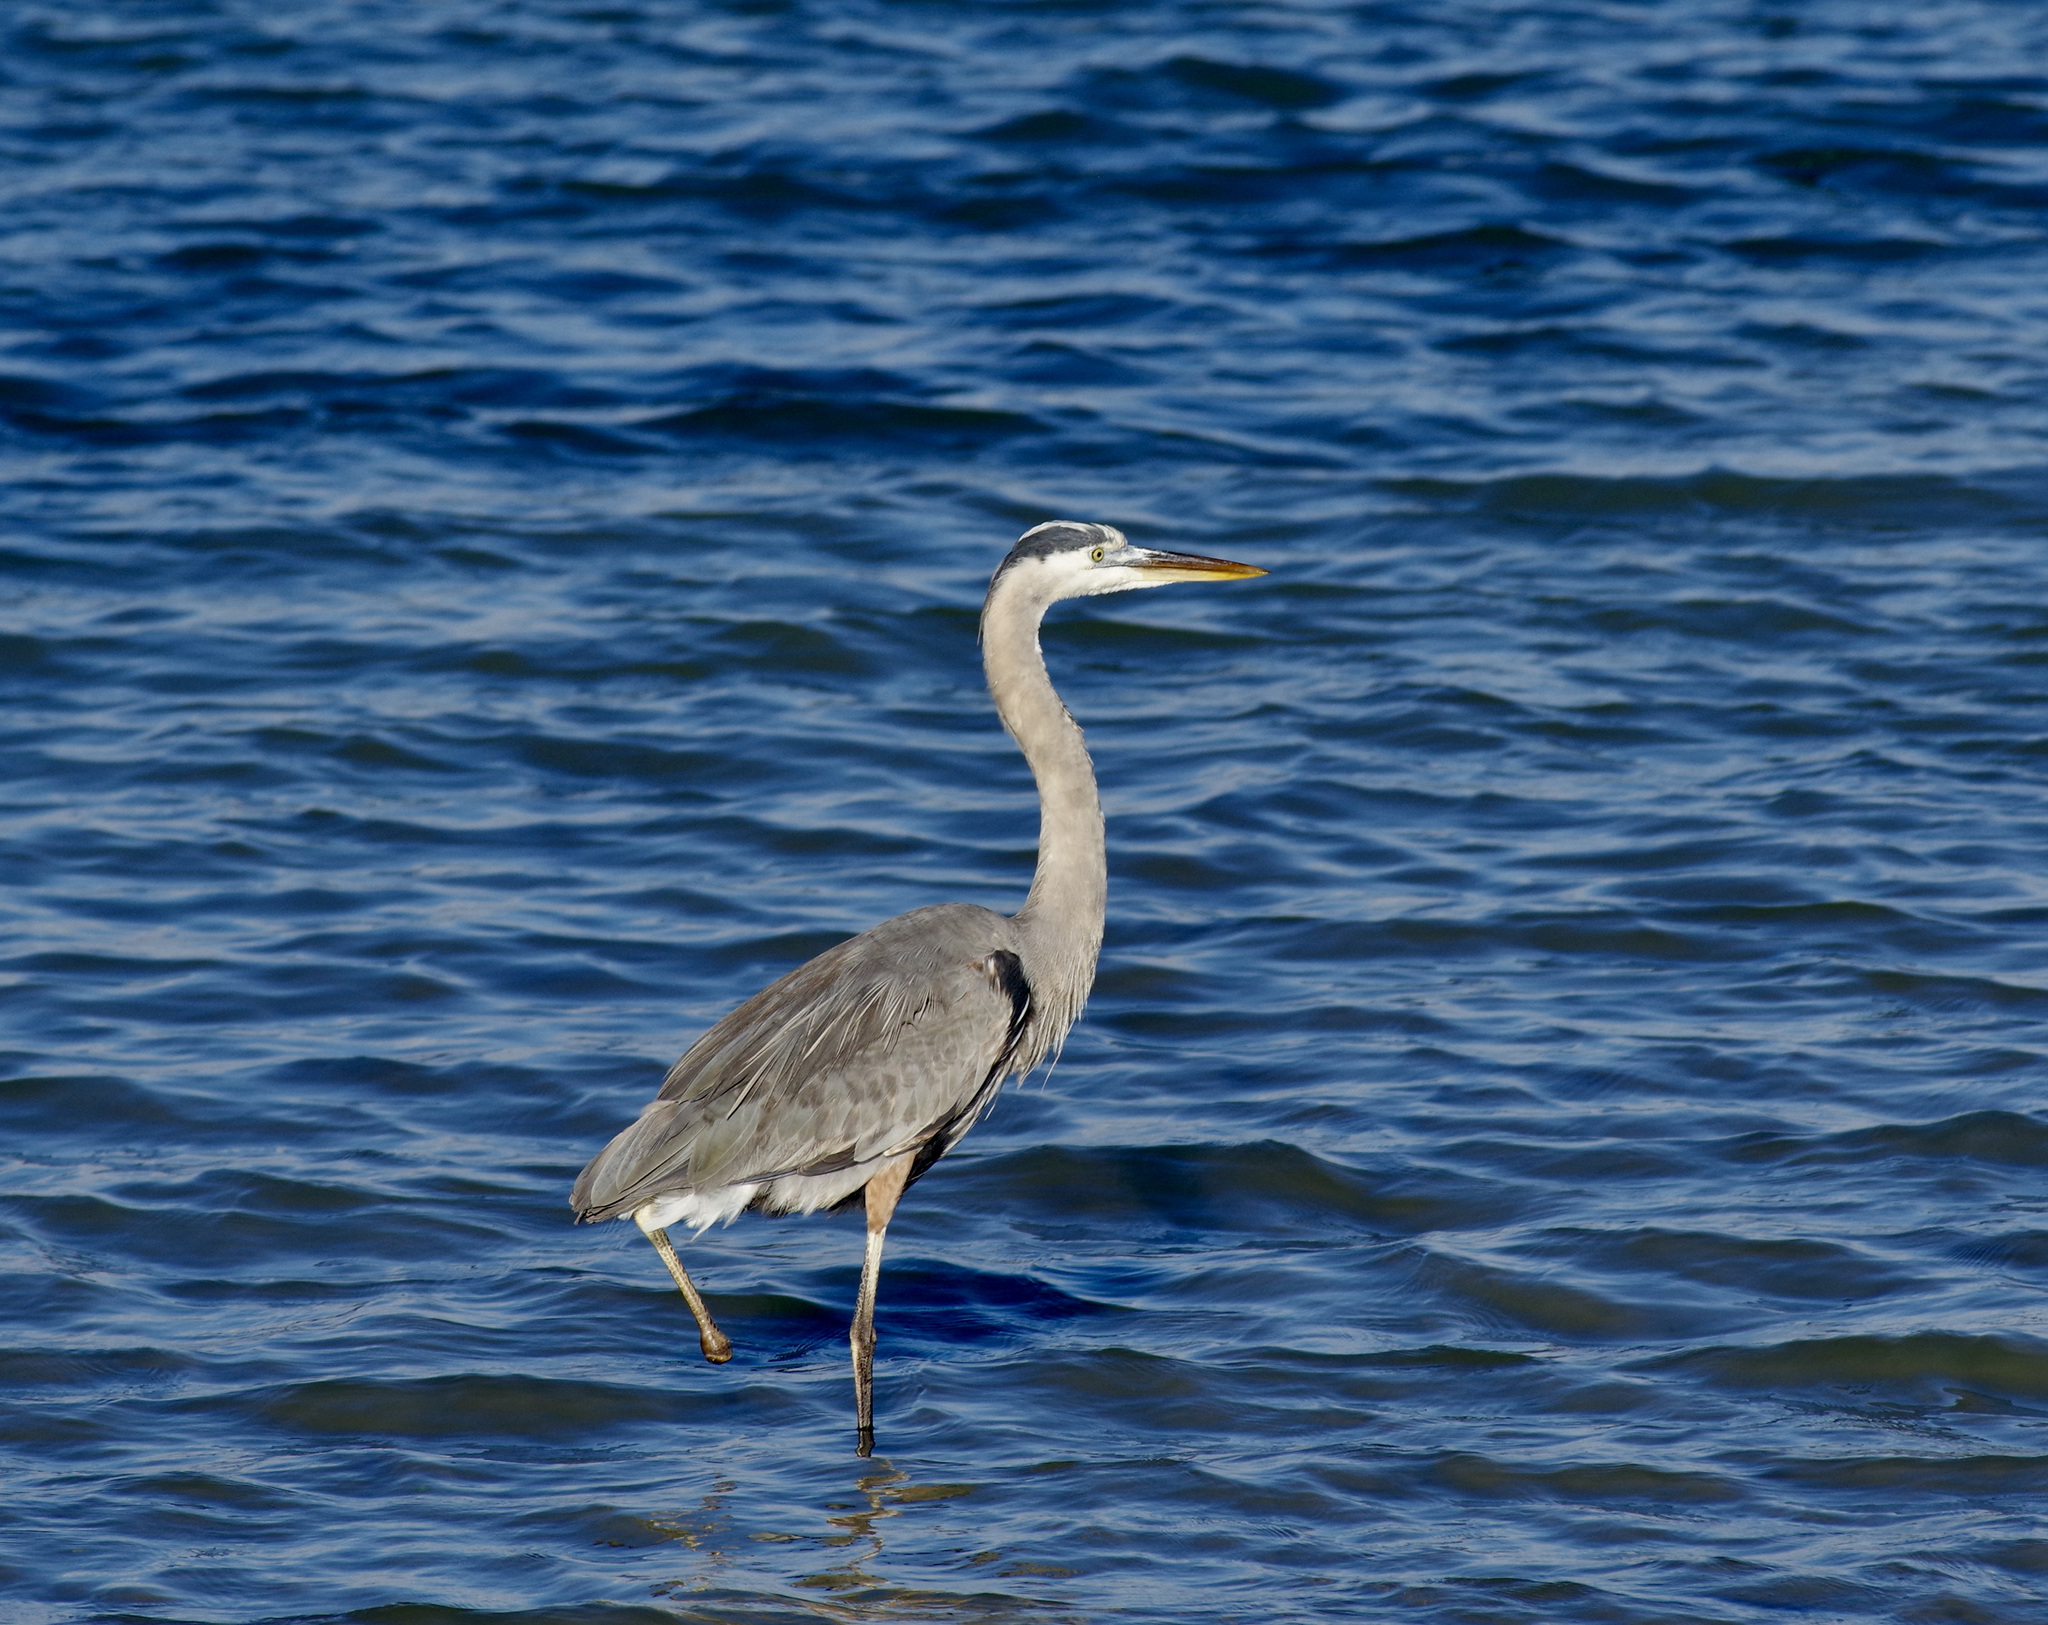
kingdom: Animalia
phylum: Chordata
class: Aves
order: Pelecaniformes
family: Ardeidae
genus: Ardea
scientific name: Ardea herodias
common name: Great blue heron
